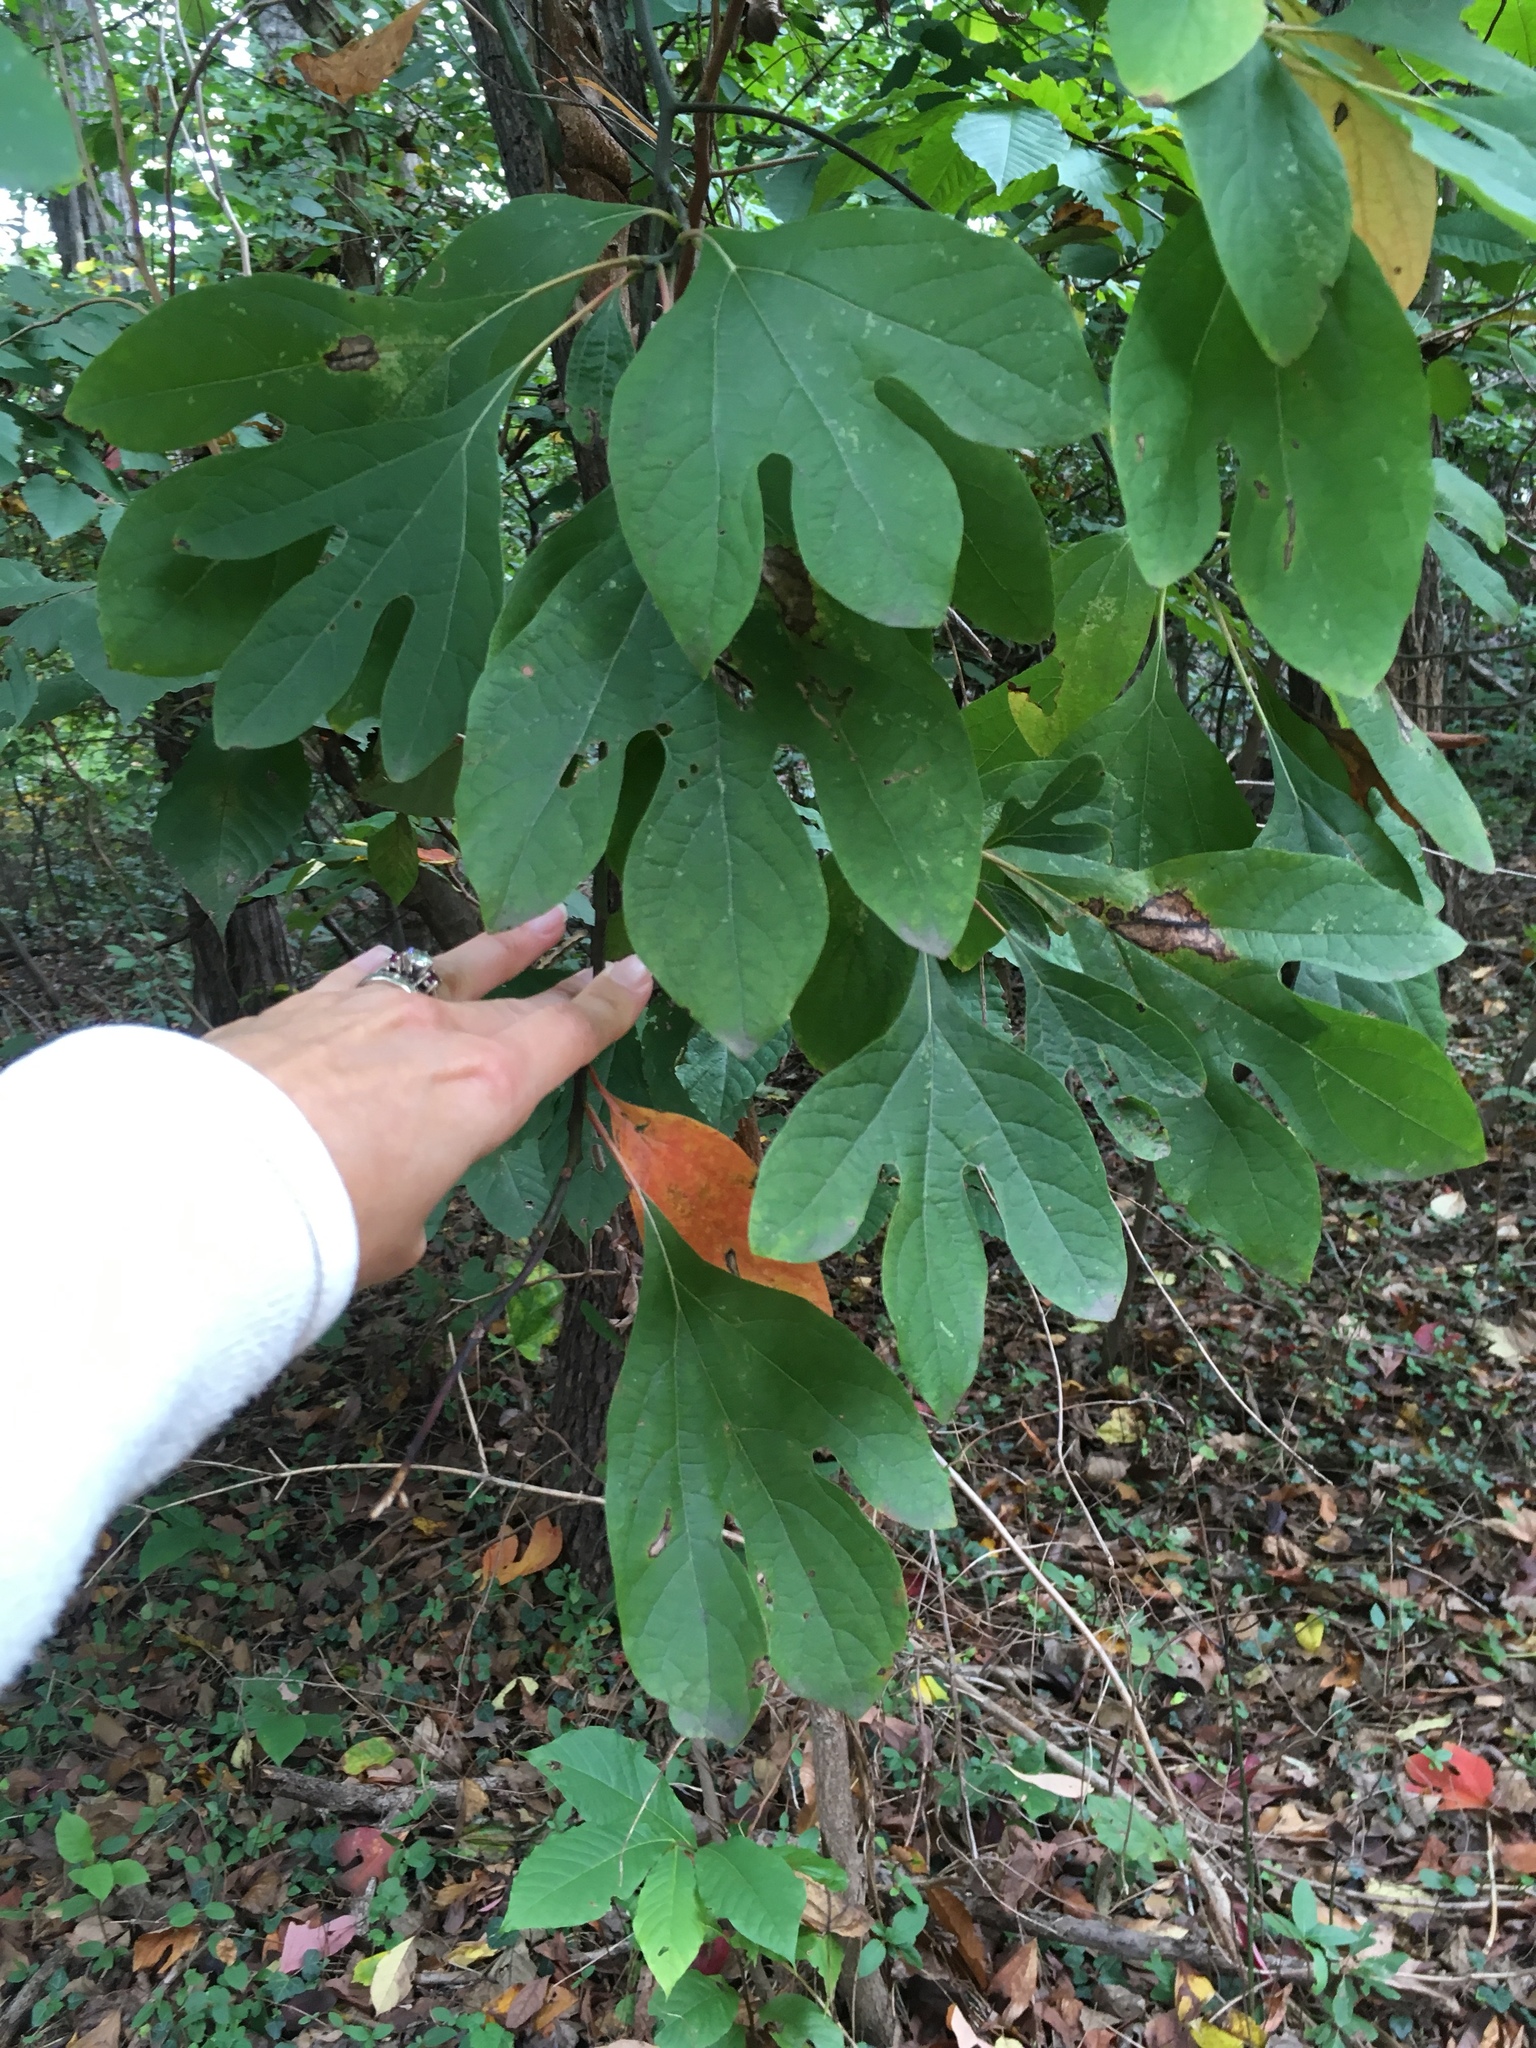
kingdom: Plantae
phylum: Tracheophyta
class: Magnoliopsida
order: Laurales
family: Lauraceae
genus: Sassafras
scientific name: Sassafras albidum
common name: Sassafras
